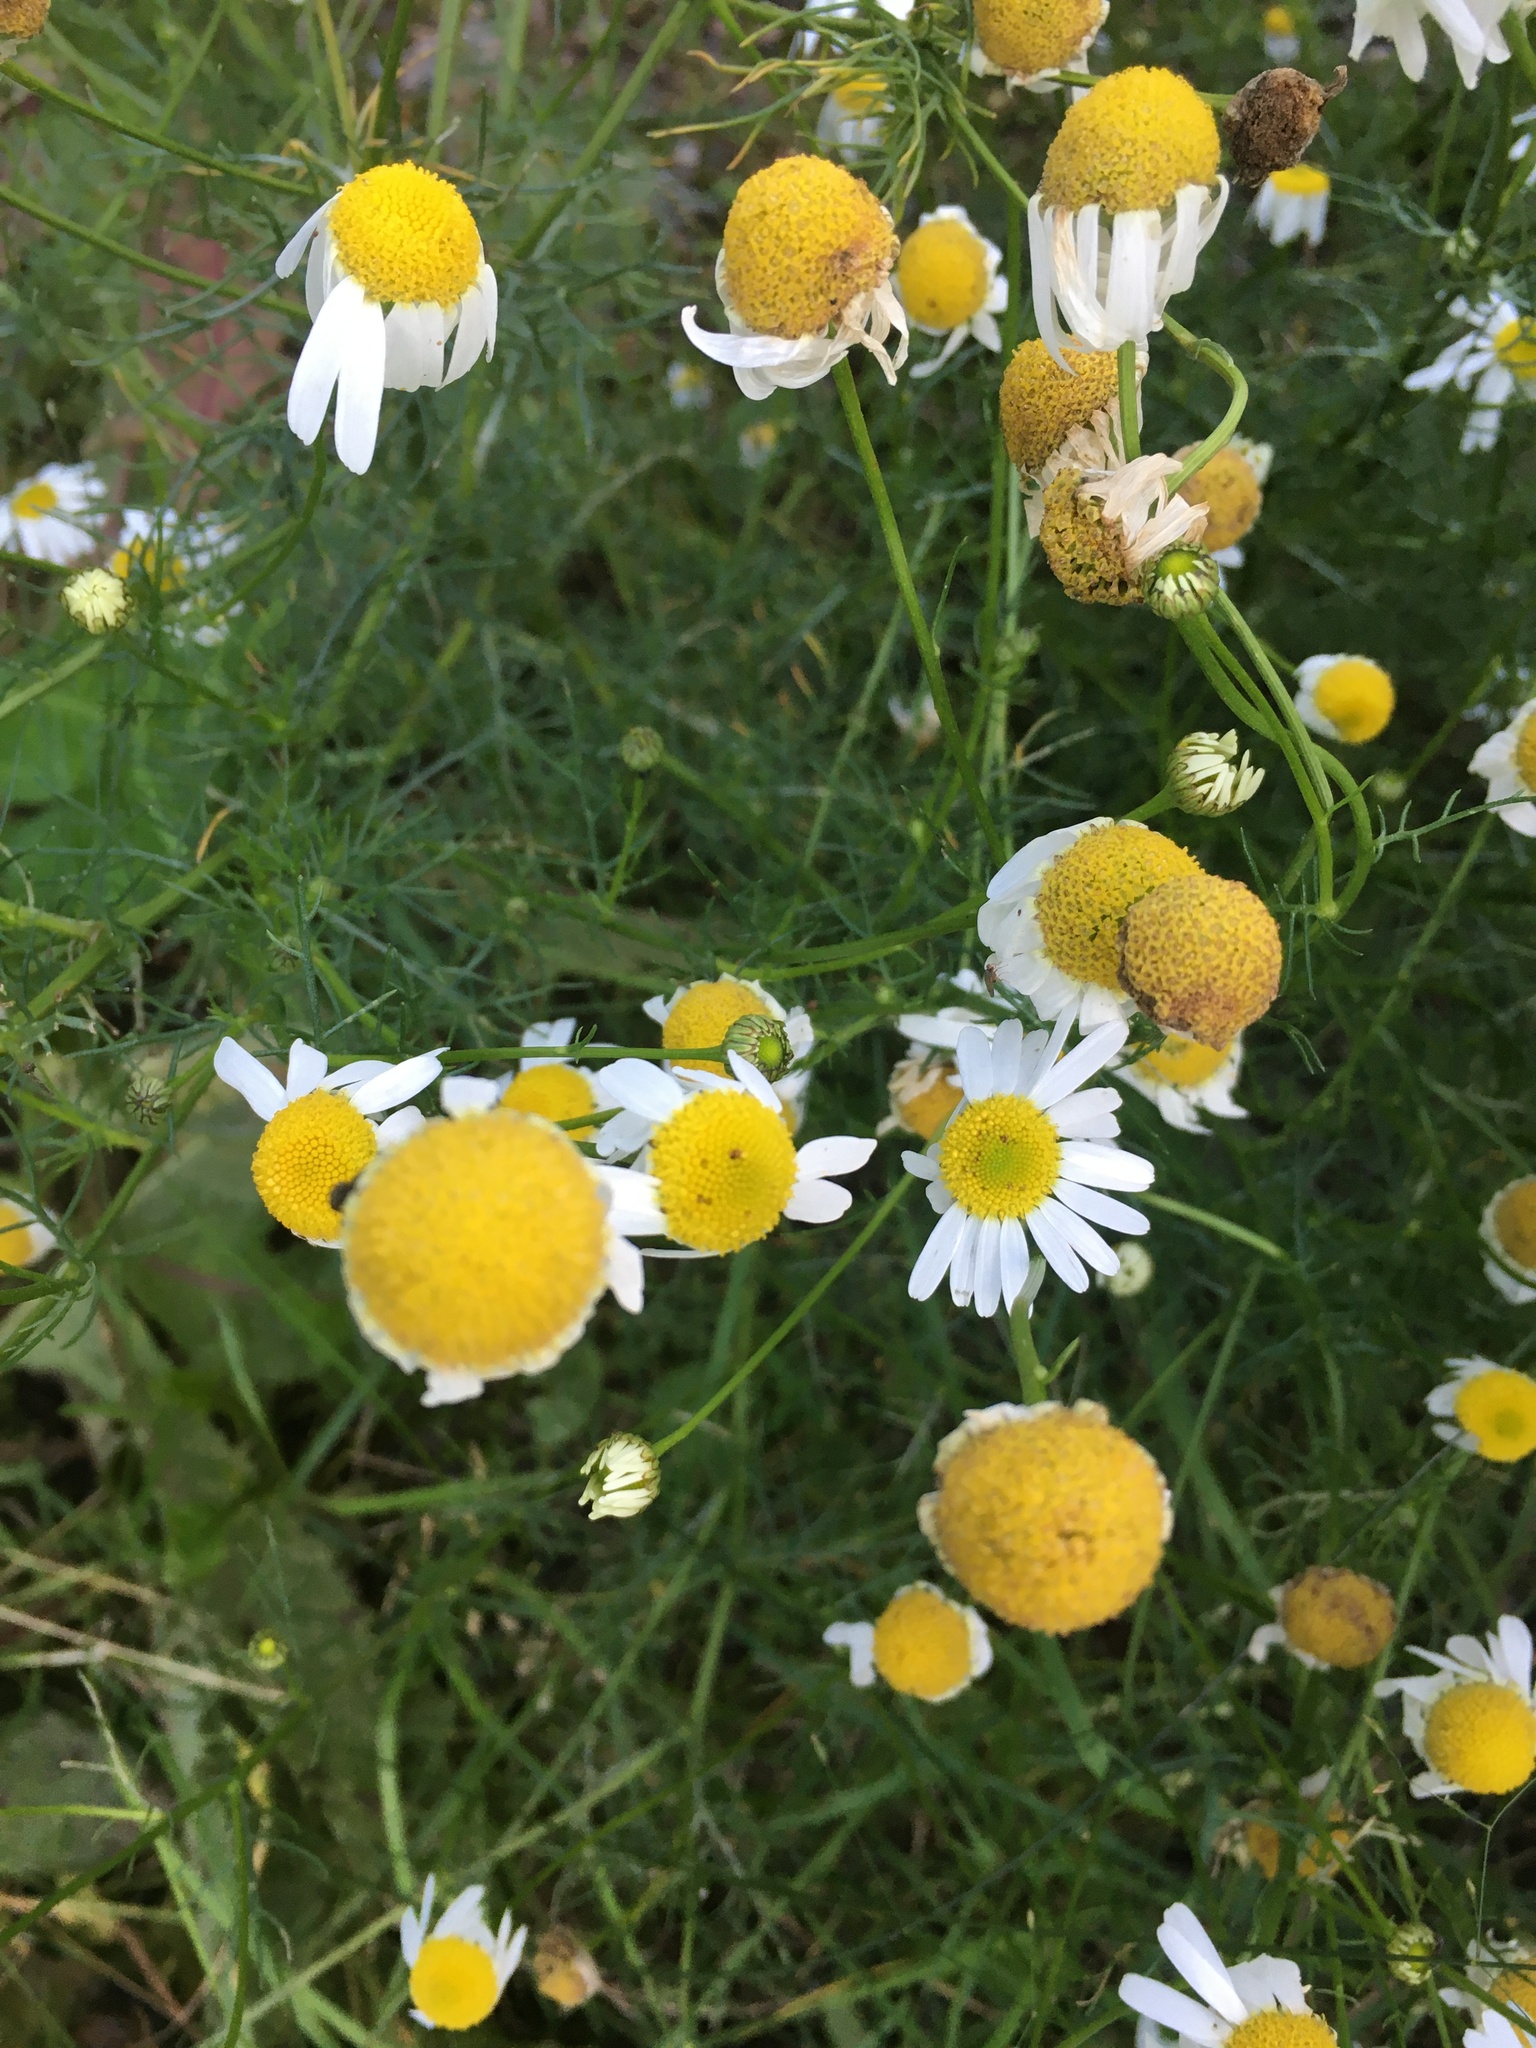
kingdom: Plantae
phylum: Tracheophyta
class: Magnoliopsida
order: Asterales
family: Asteraceae
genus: Tripleurospermum
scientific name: Tripleurospermum inodorum
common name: Scentless mayweed
